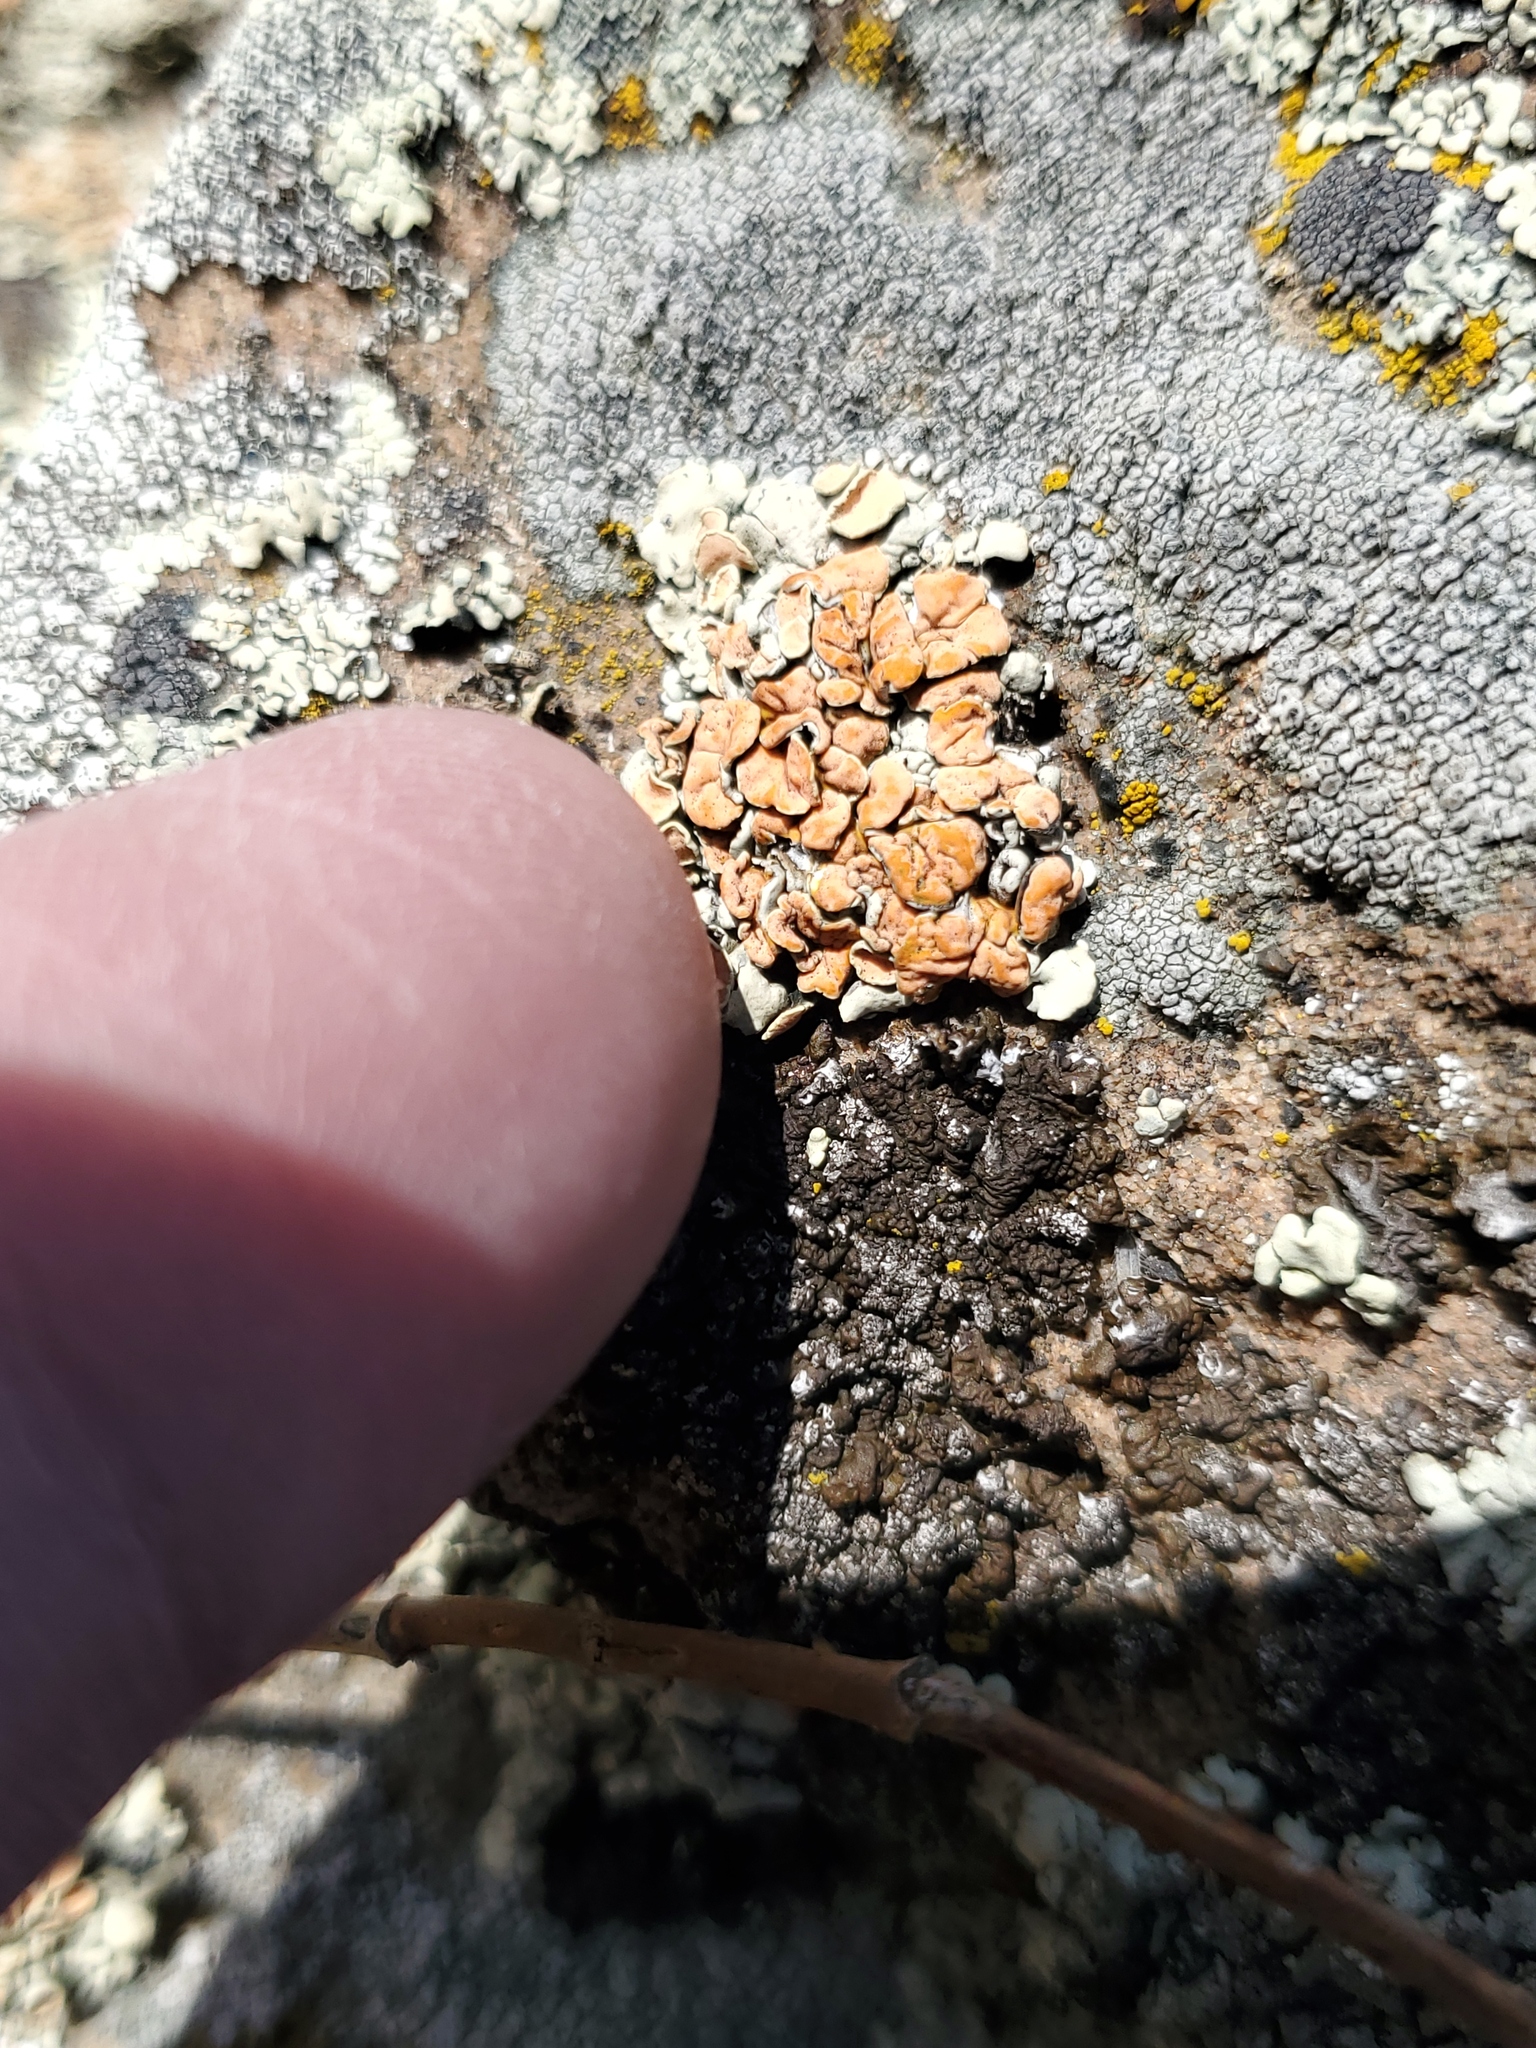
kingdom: Fungi
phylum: Ascomycota
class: Lecanoromycetes
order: Lecanorales
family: Lecanoraceae
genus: Omphalodina
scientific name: Omphalodina chrysoleuca
